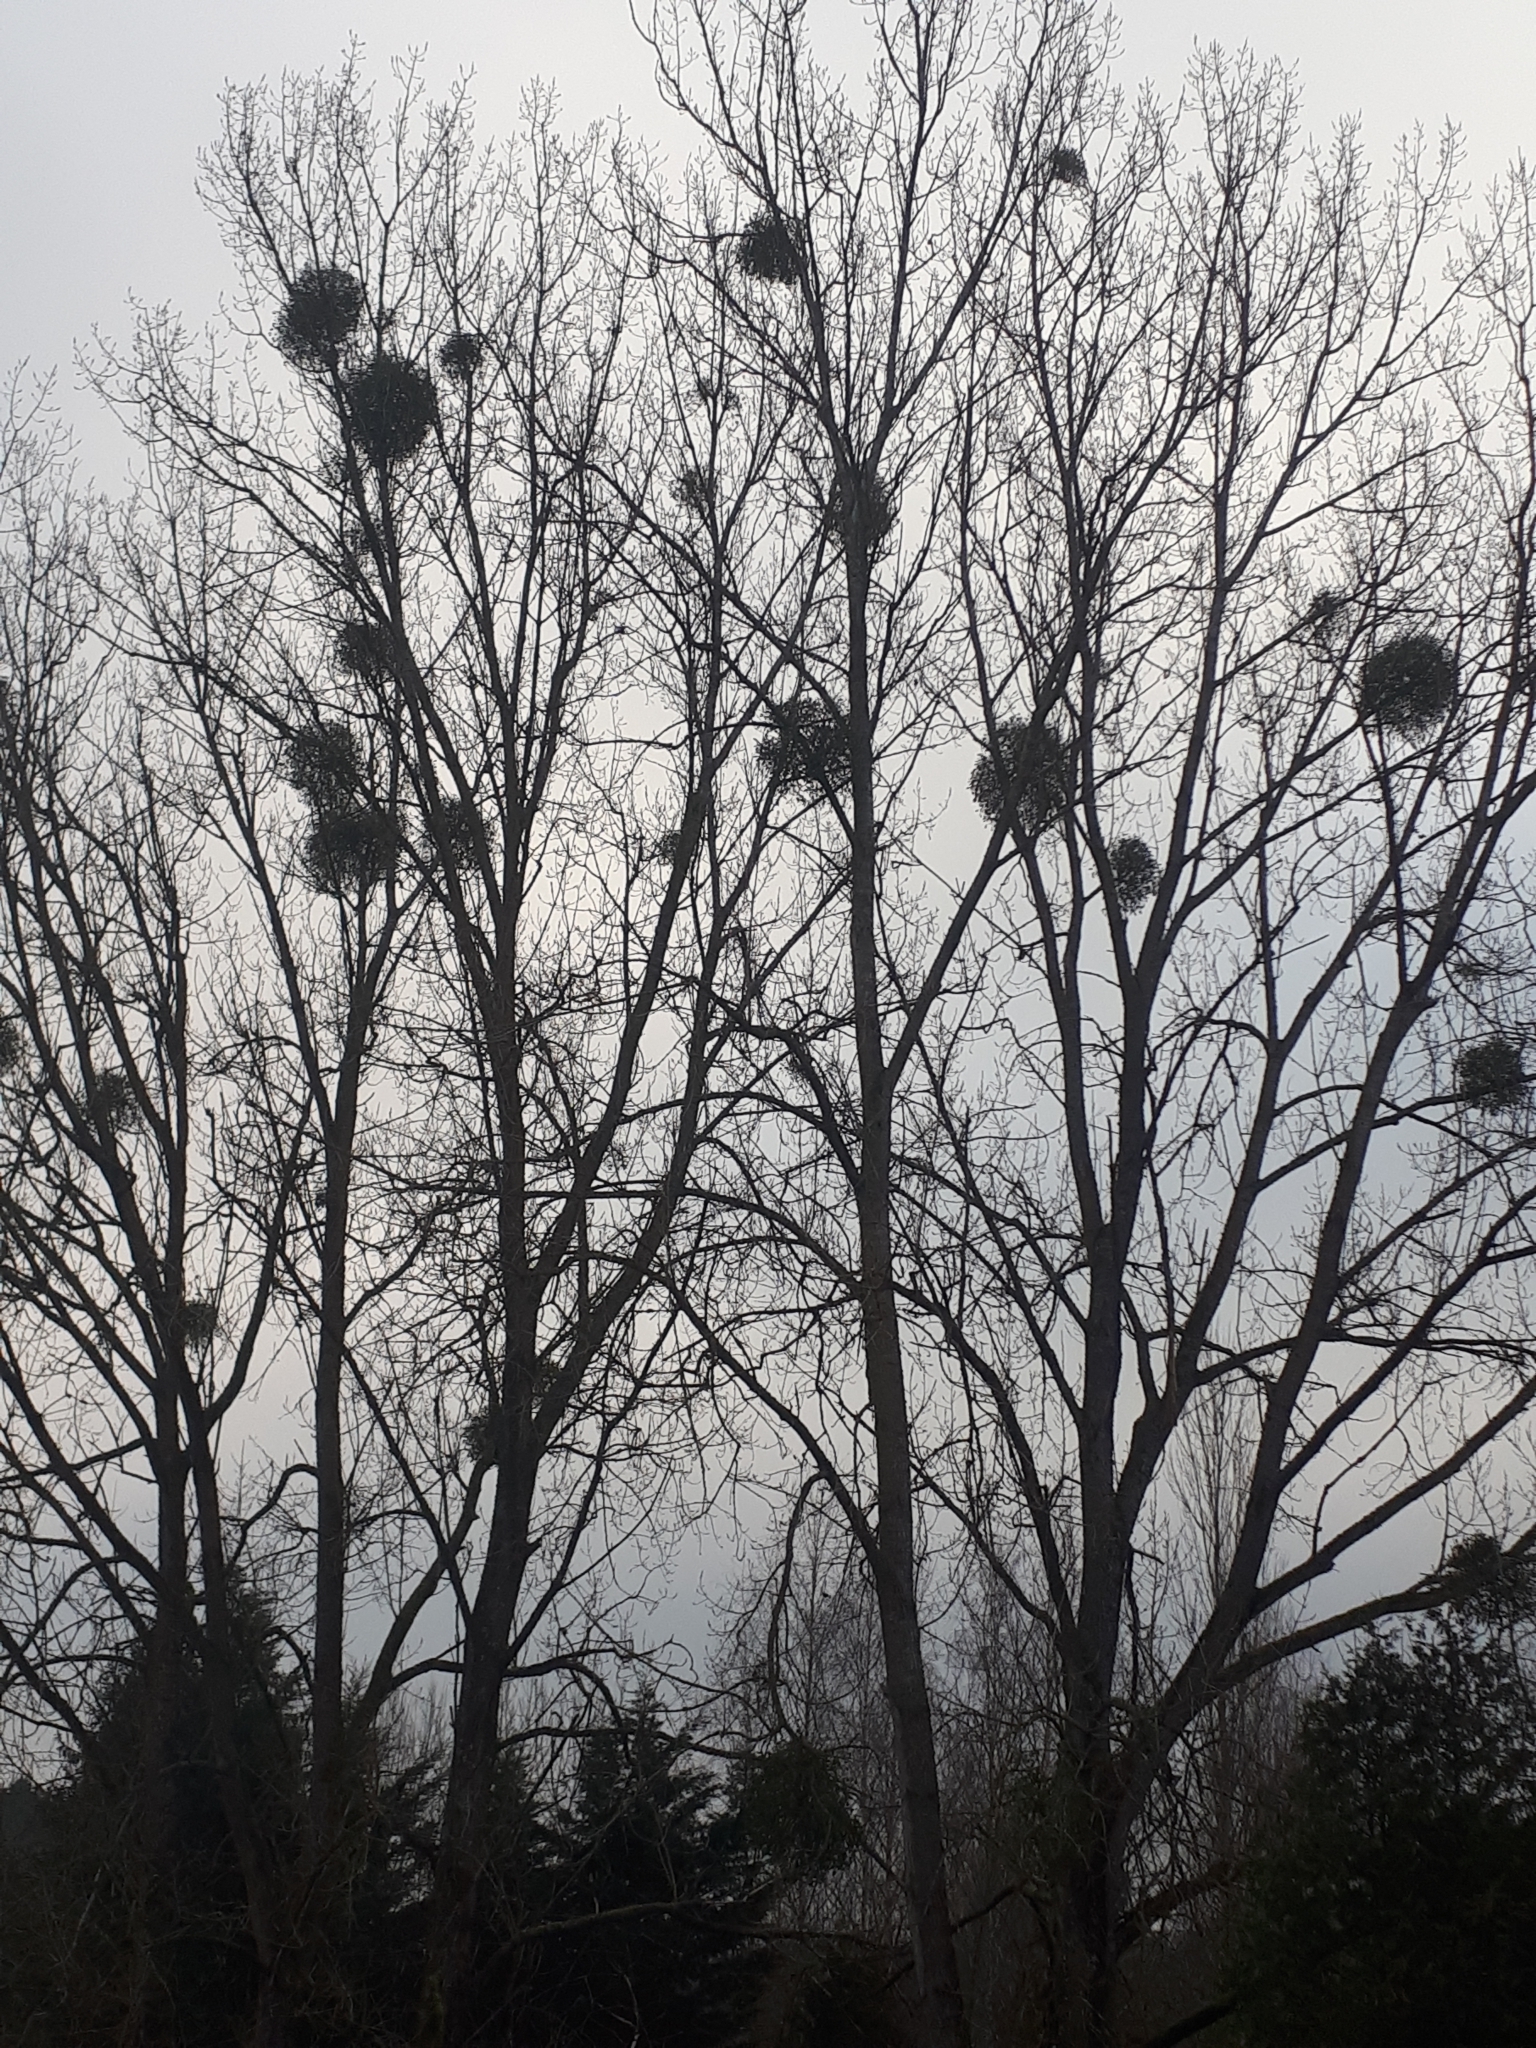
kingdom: Plantae
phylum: Tracheophyta
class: Magnoliopsida
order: Santalales
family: Viscaceae
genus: Viscum
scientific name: Viscum album
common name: Mistletoe
